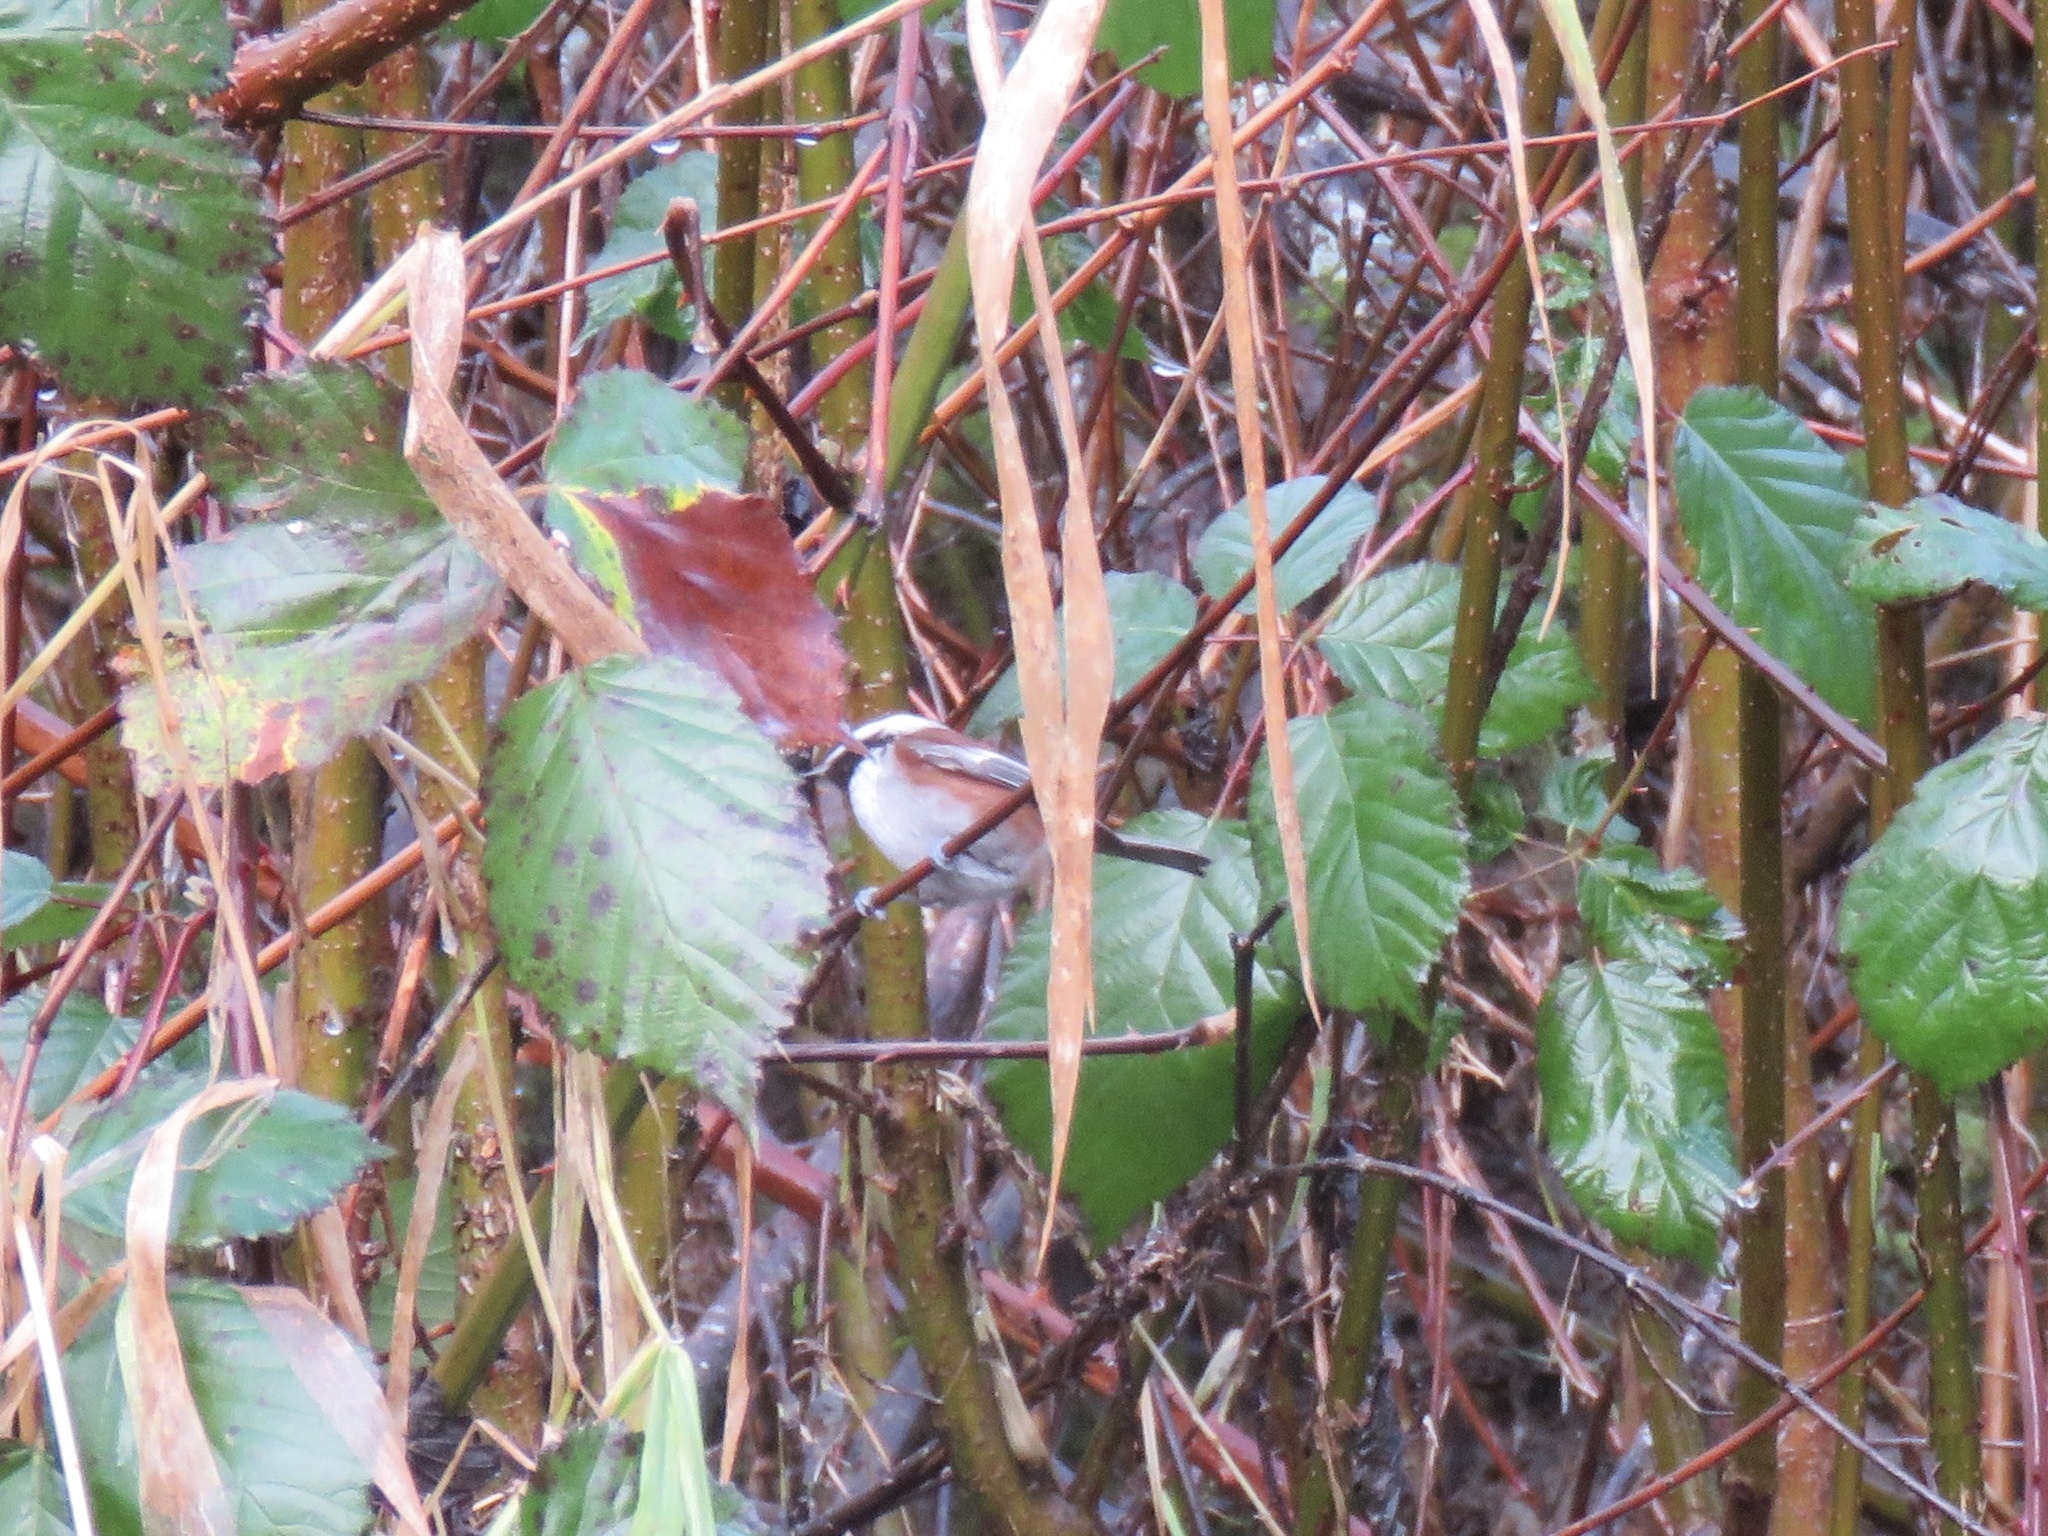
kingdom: Animalia
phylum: Chordata
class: Aves
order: Passeriformes
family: Paridae
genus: Poecile
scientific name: Poecile rufescens
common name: Chestnut-backed chickadee
